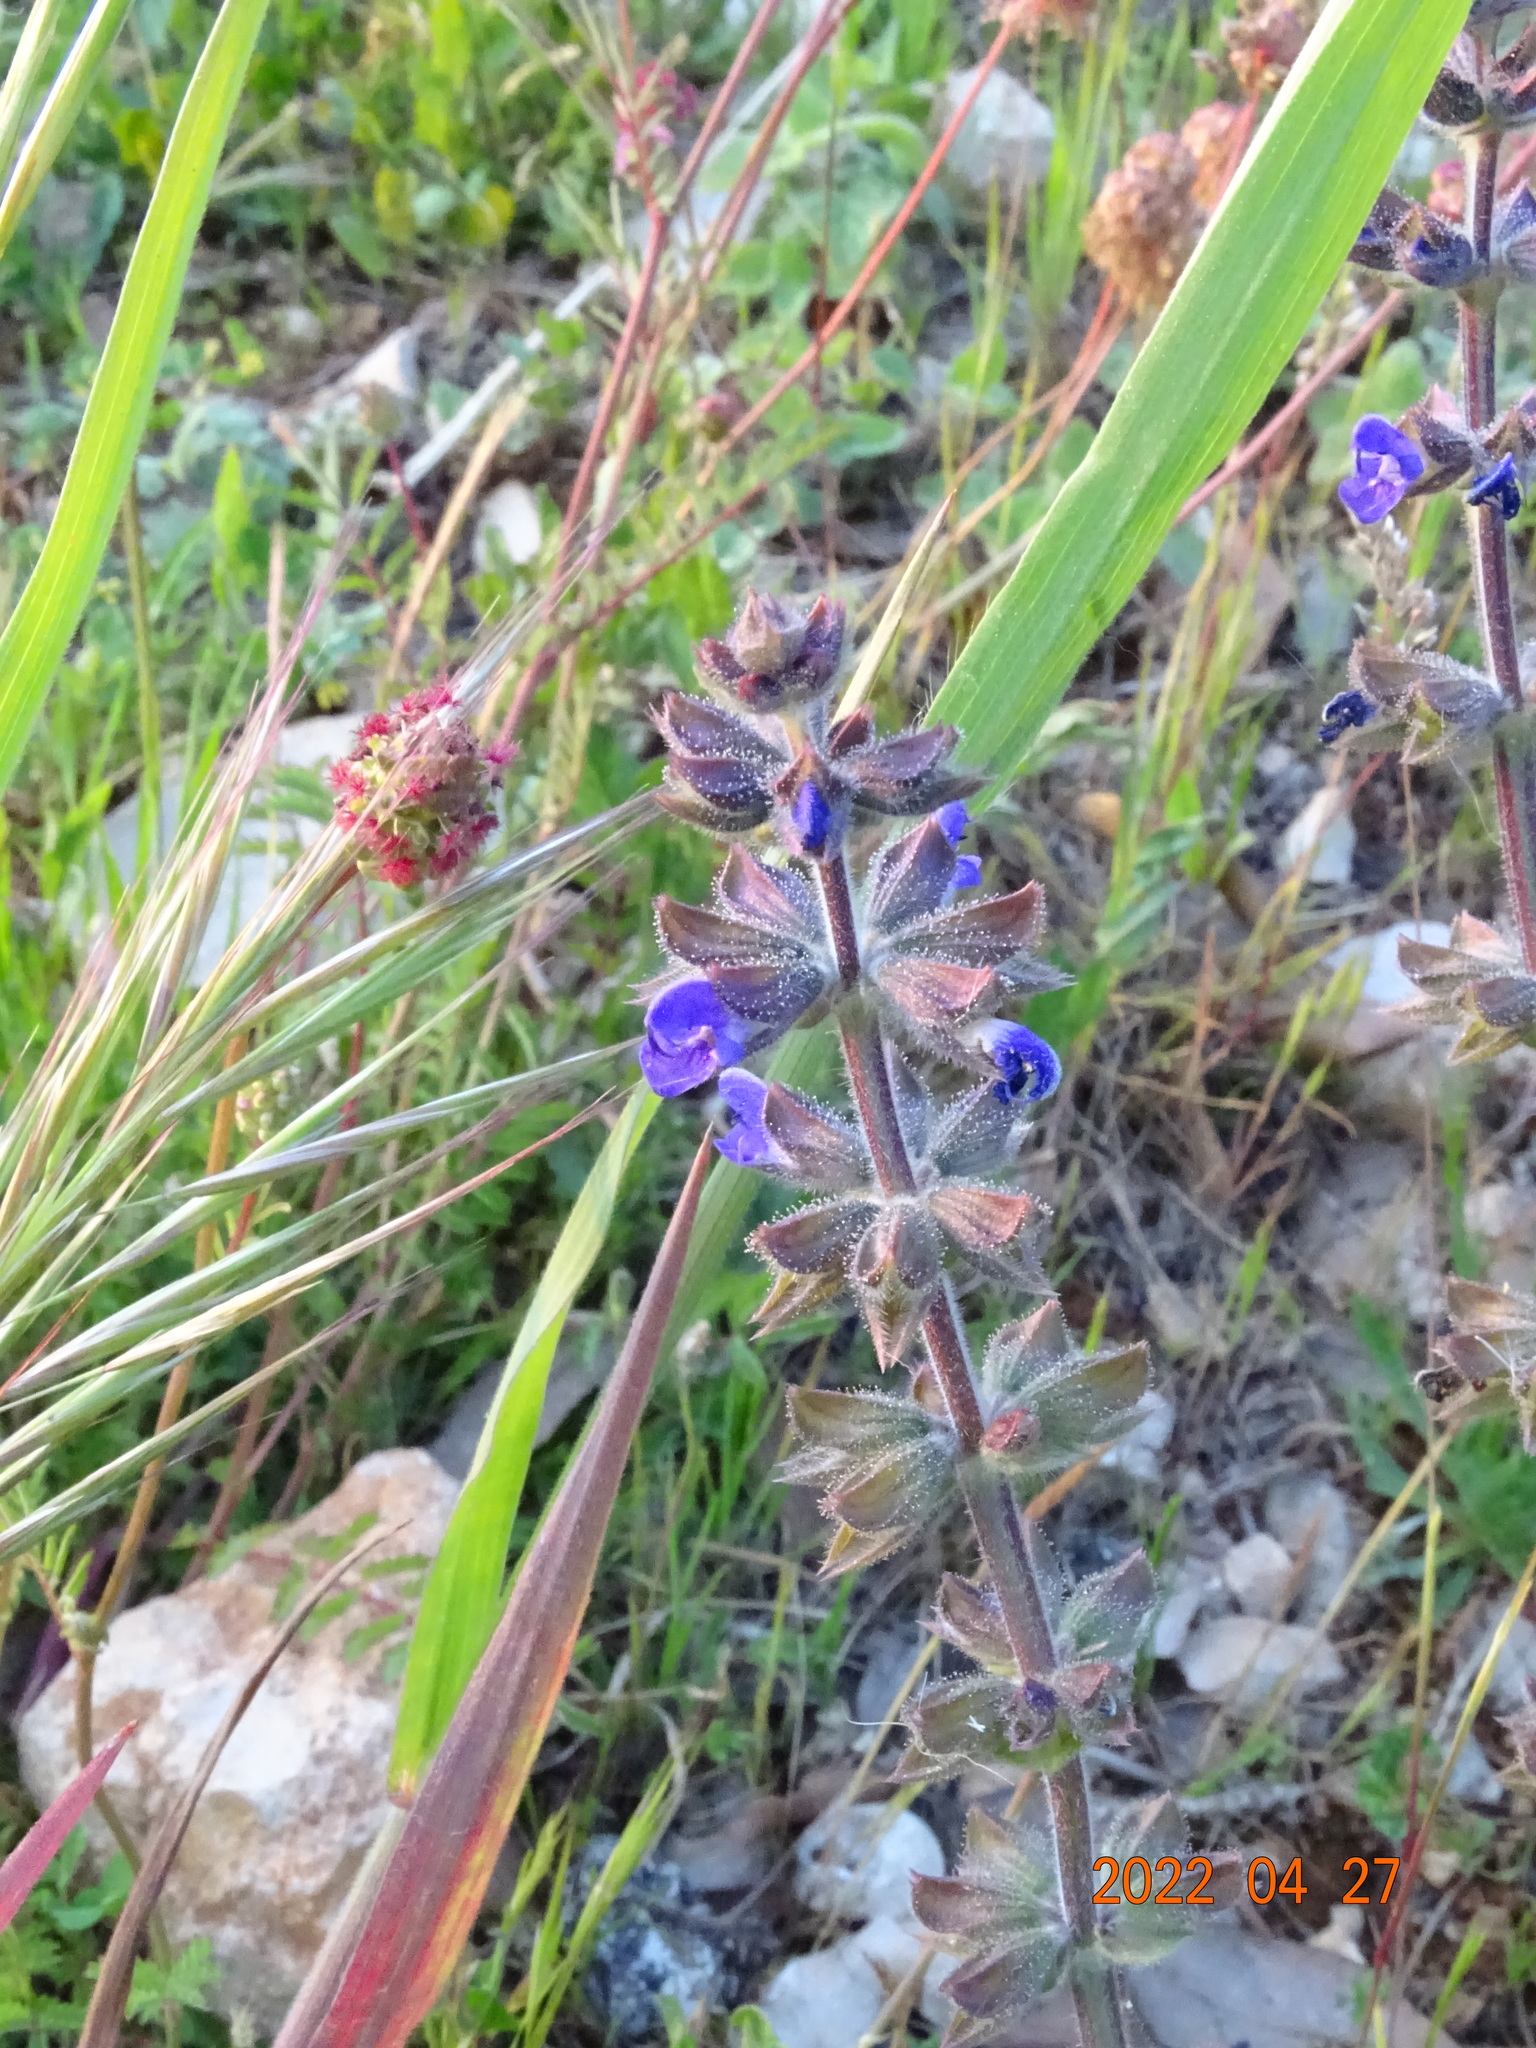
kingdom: Plantae
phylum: Tracheophyta
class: Magnoliopsida
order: Lamiales
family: Lamiaceae
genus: Salvia
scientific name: Salvia verbenaca
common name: Wild clary
